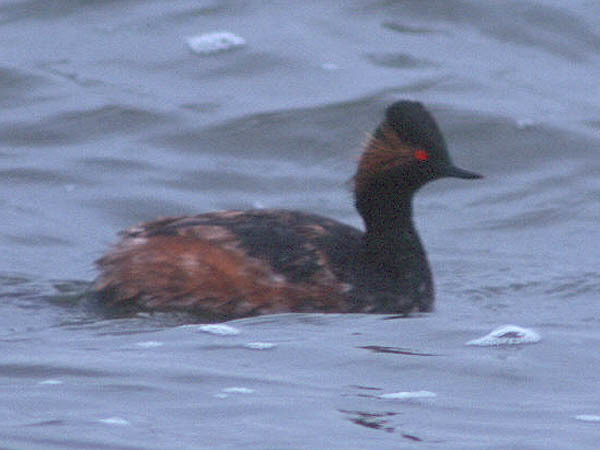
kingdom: Animalia
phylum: Chordata
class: Aves
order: Podicipediformes
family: Podicipedidae
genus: Podiceps
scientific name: Podiceps nigricollis
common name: Black-necked grebe
